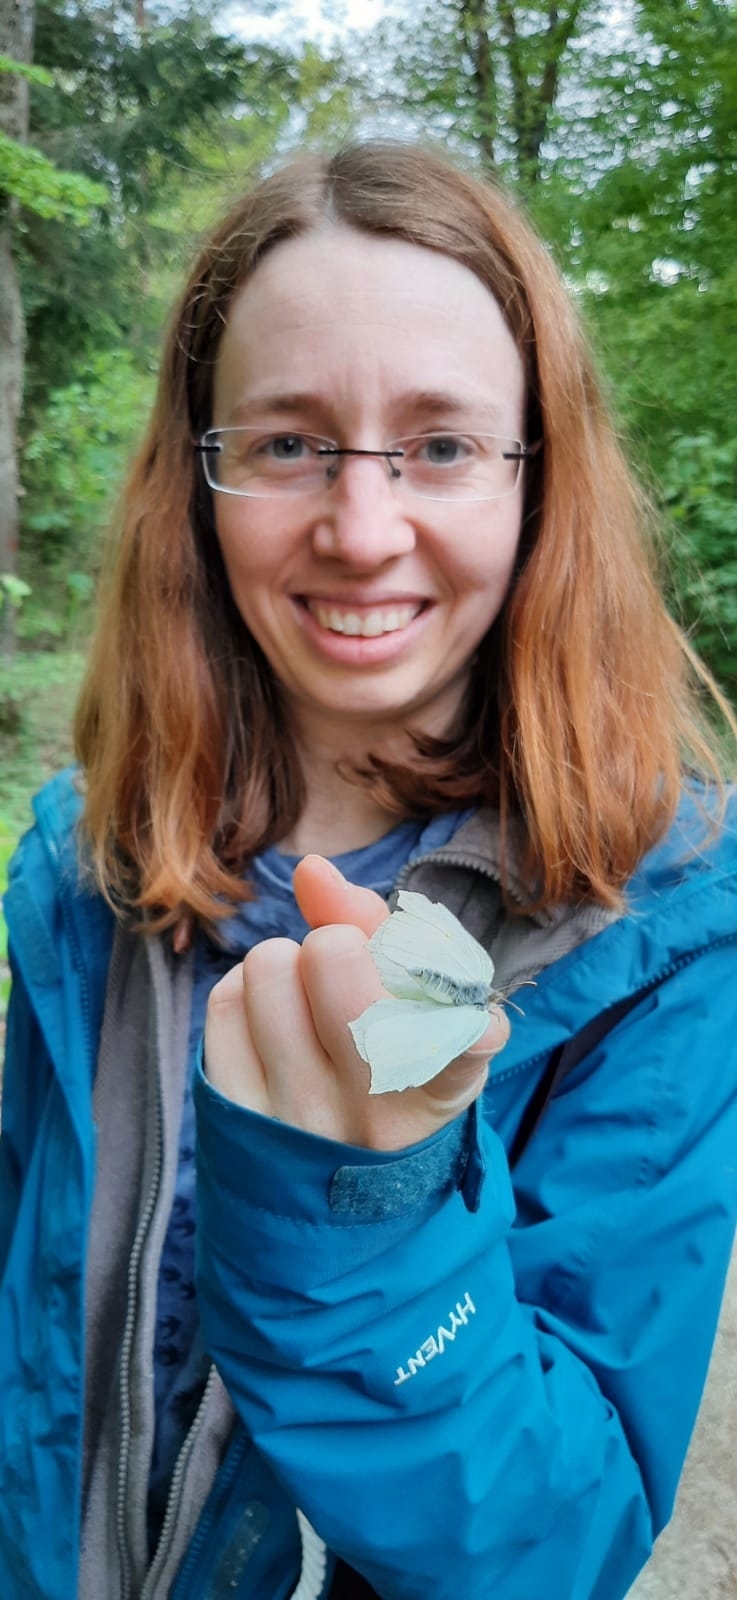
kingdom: Animalia
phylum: Arthropoda
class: Insecta
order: Lepidoptera
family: Pieridae
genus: Gonepteryx
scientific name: Gonepteryx rhamni
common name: Brimstone
